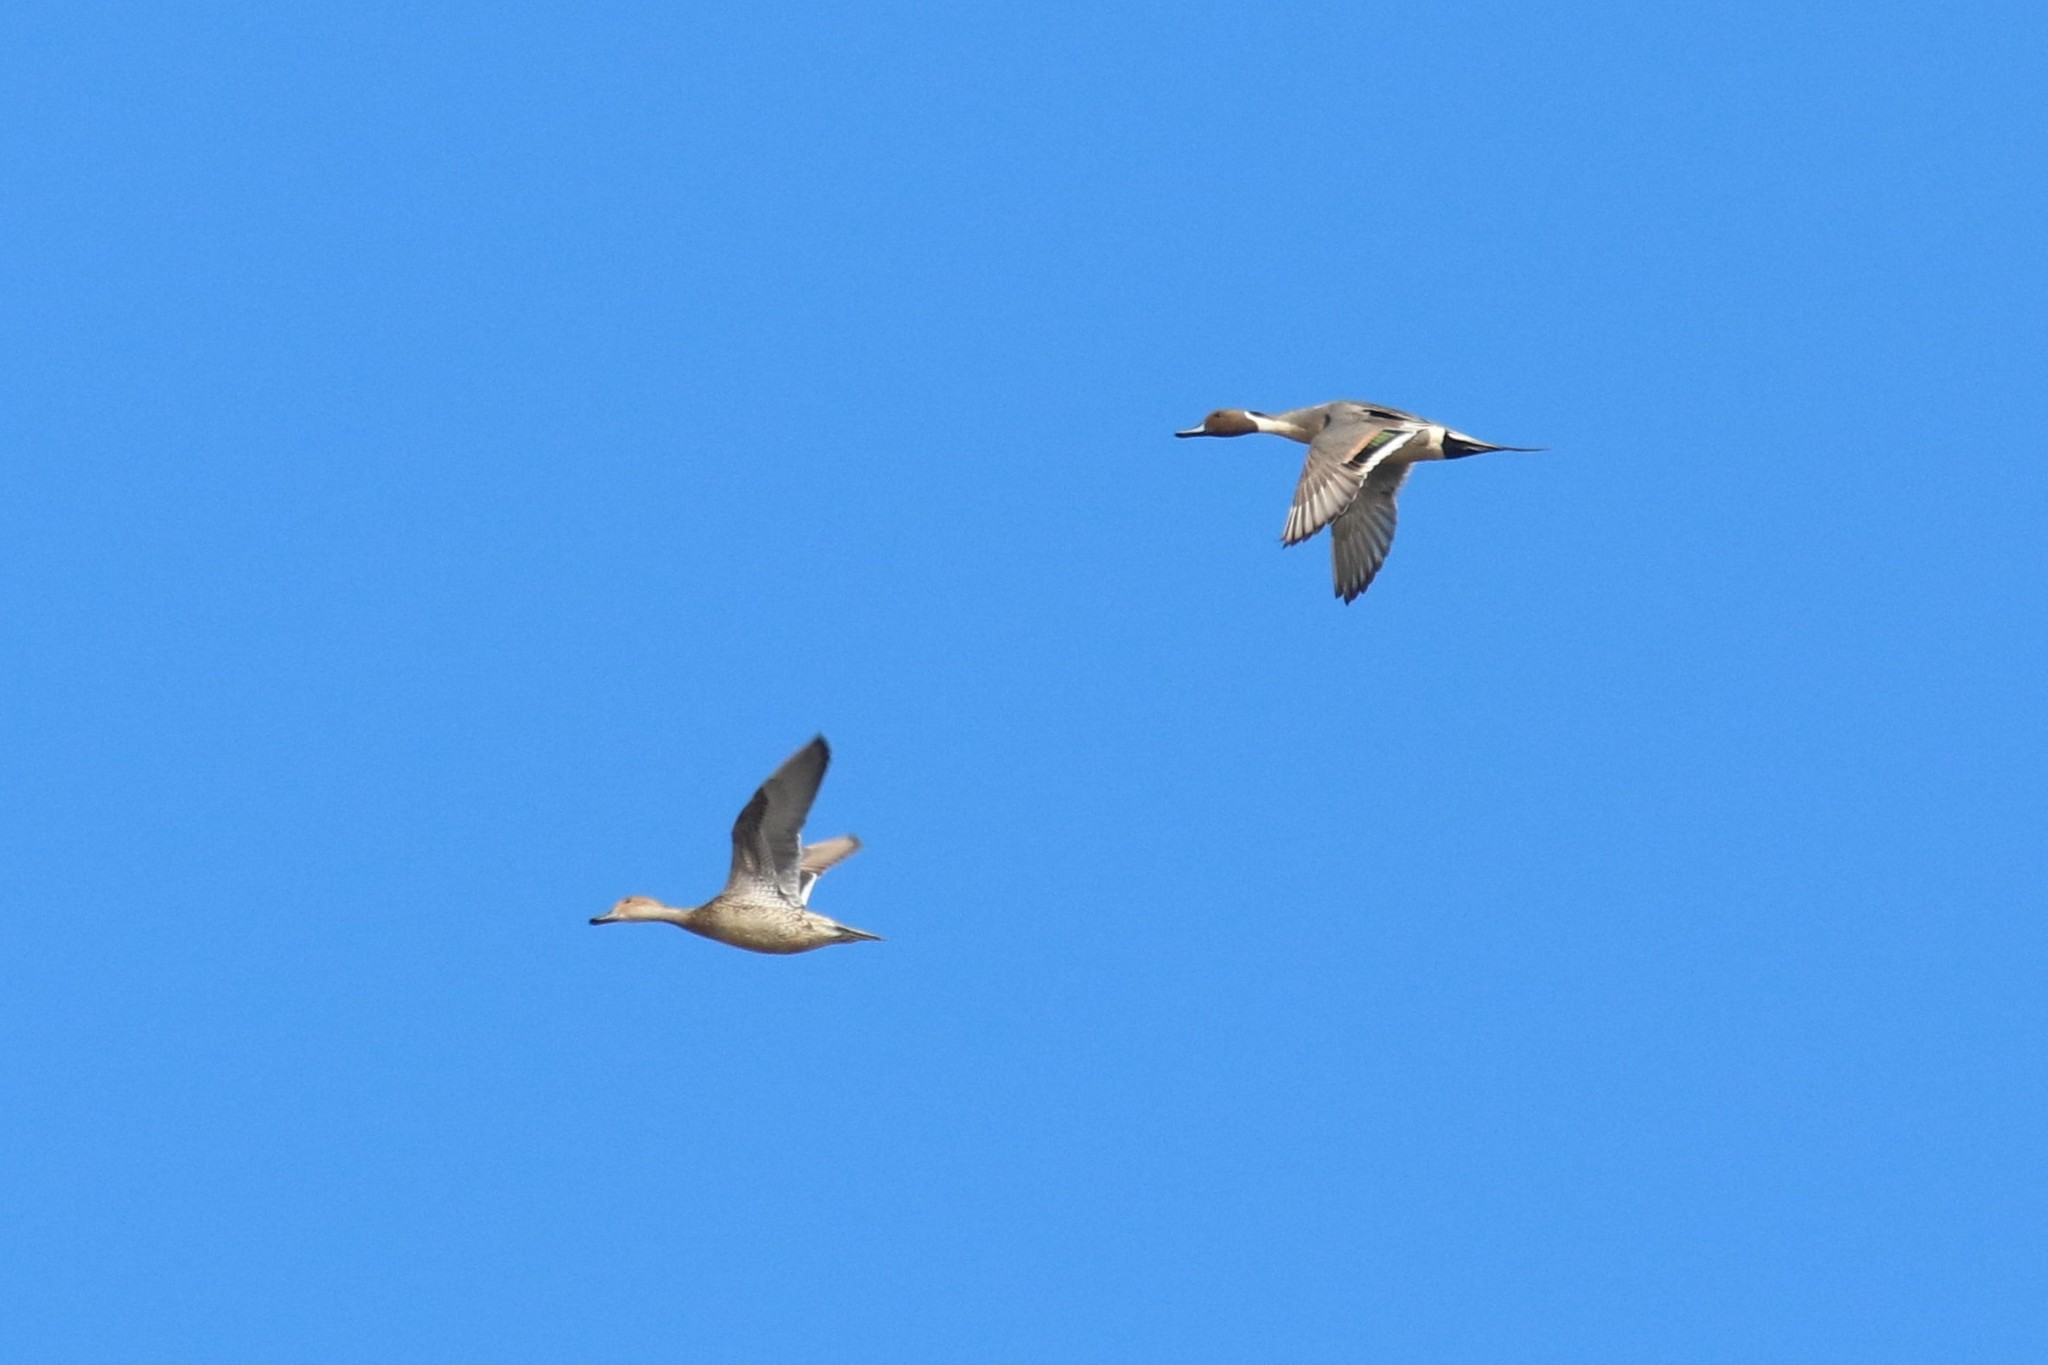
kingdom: Animalia
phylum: Chordata
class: Aves
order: Anseriformes
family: Anatidae
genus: Anas
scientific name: Anas acuta
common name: Northern pintail
